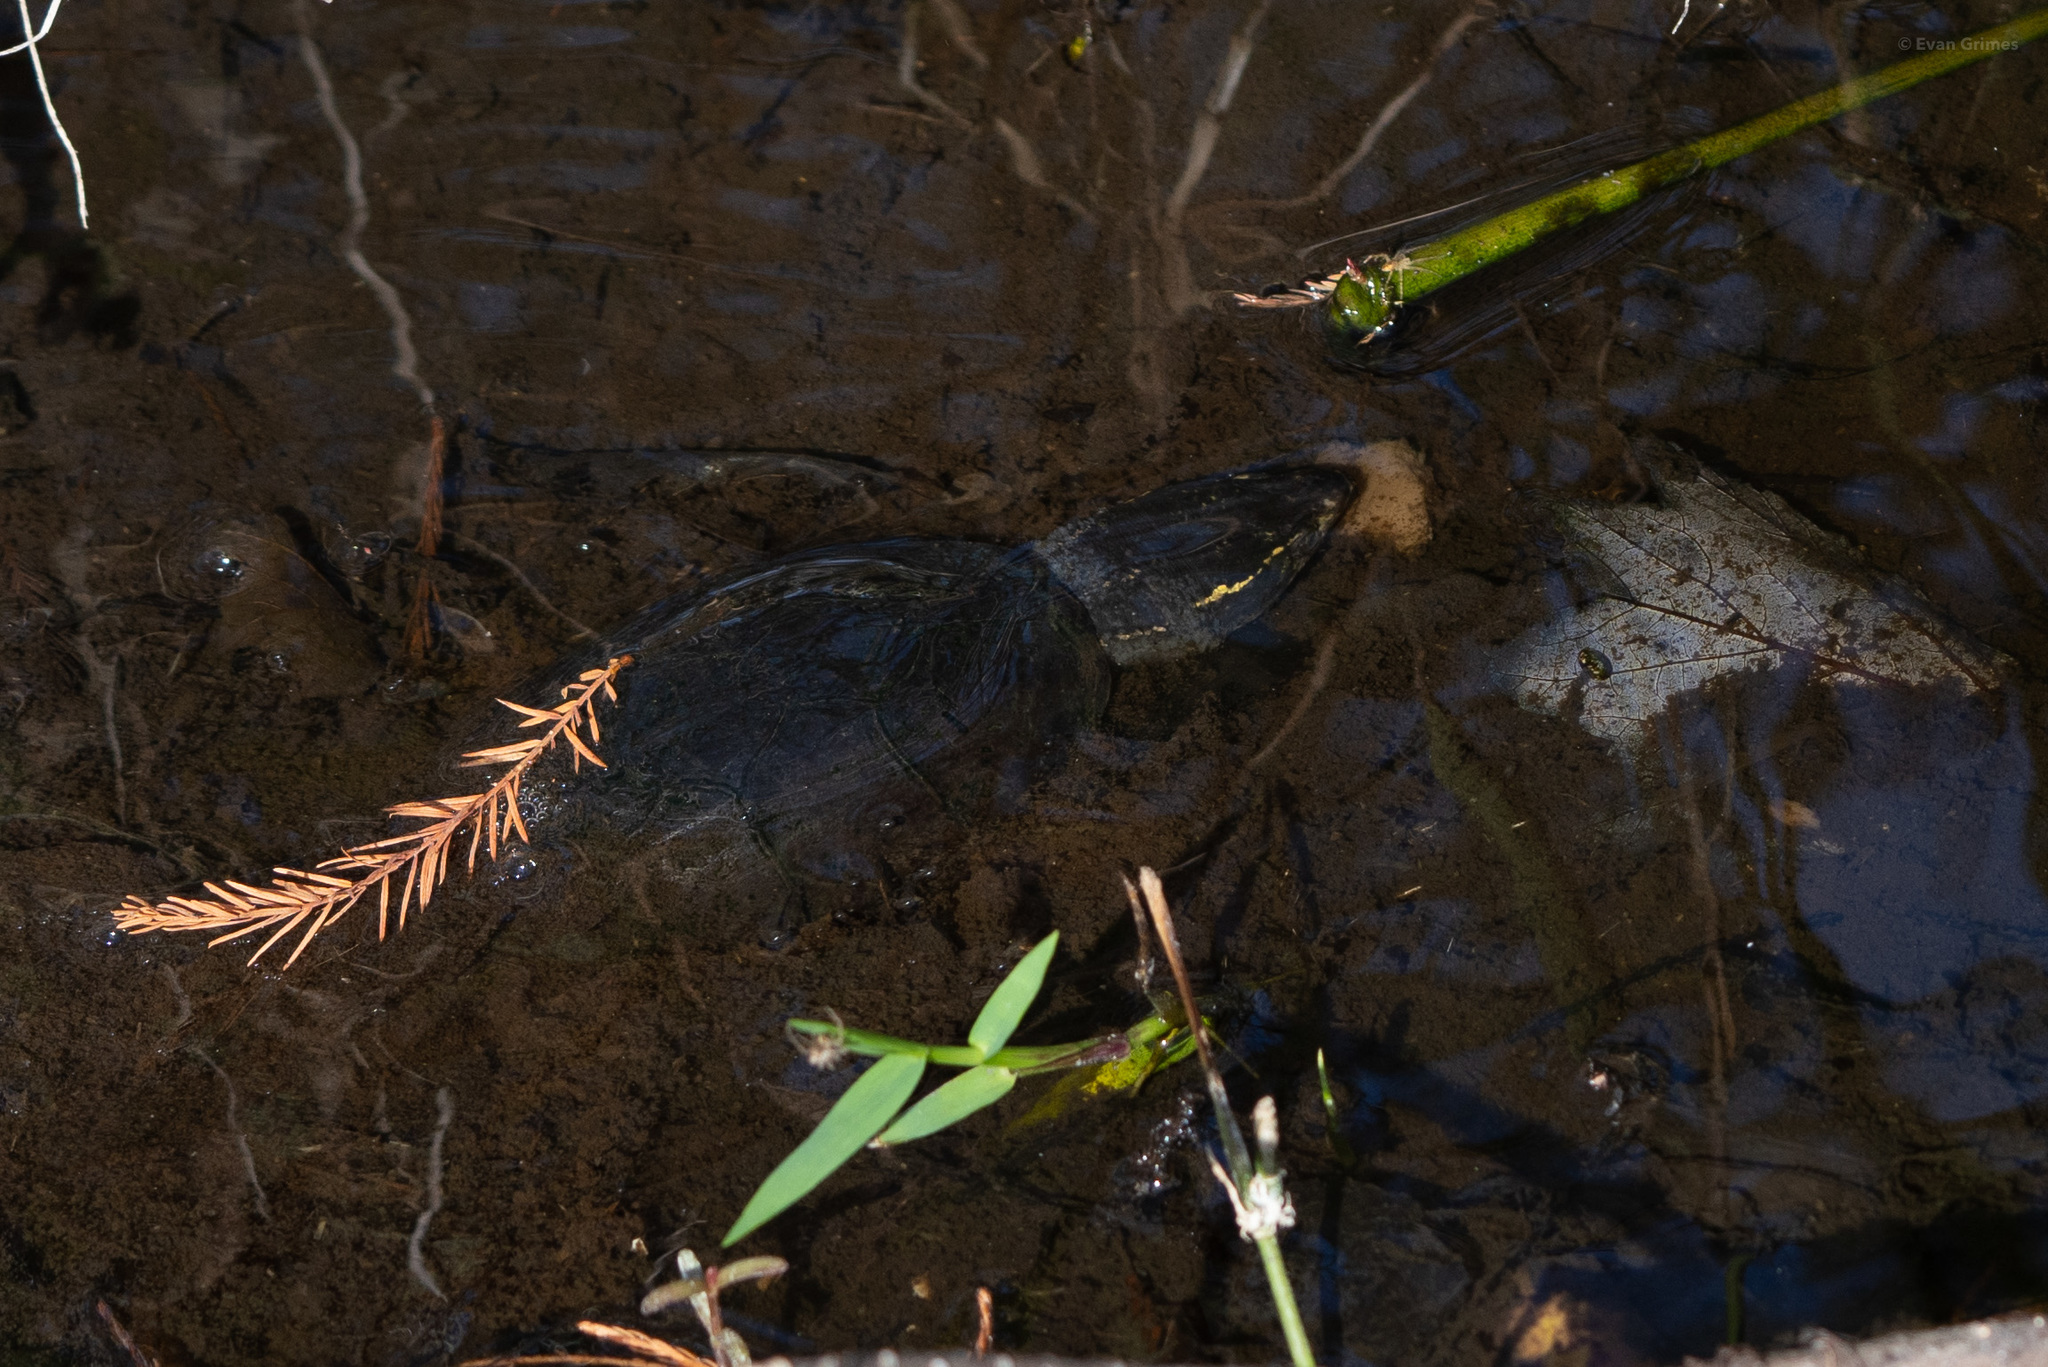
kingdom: Animalia
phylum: Chordata
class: Testudines
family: Kinosternidae
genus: Sternotherus
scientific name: Sternotherus odoratus
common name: Common musk turtle
